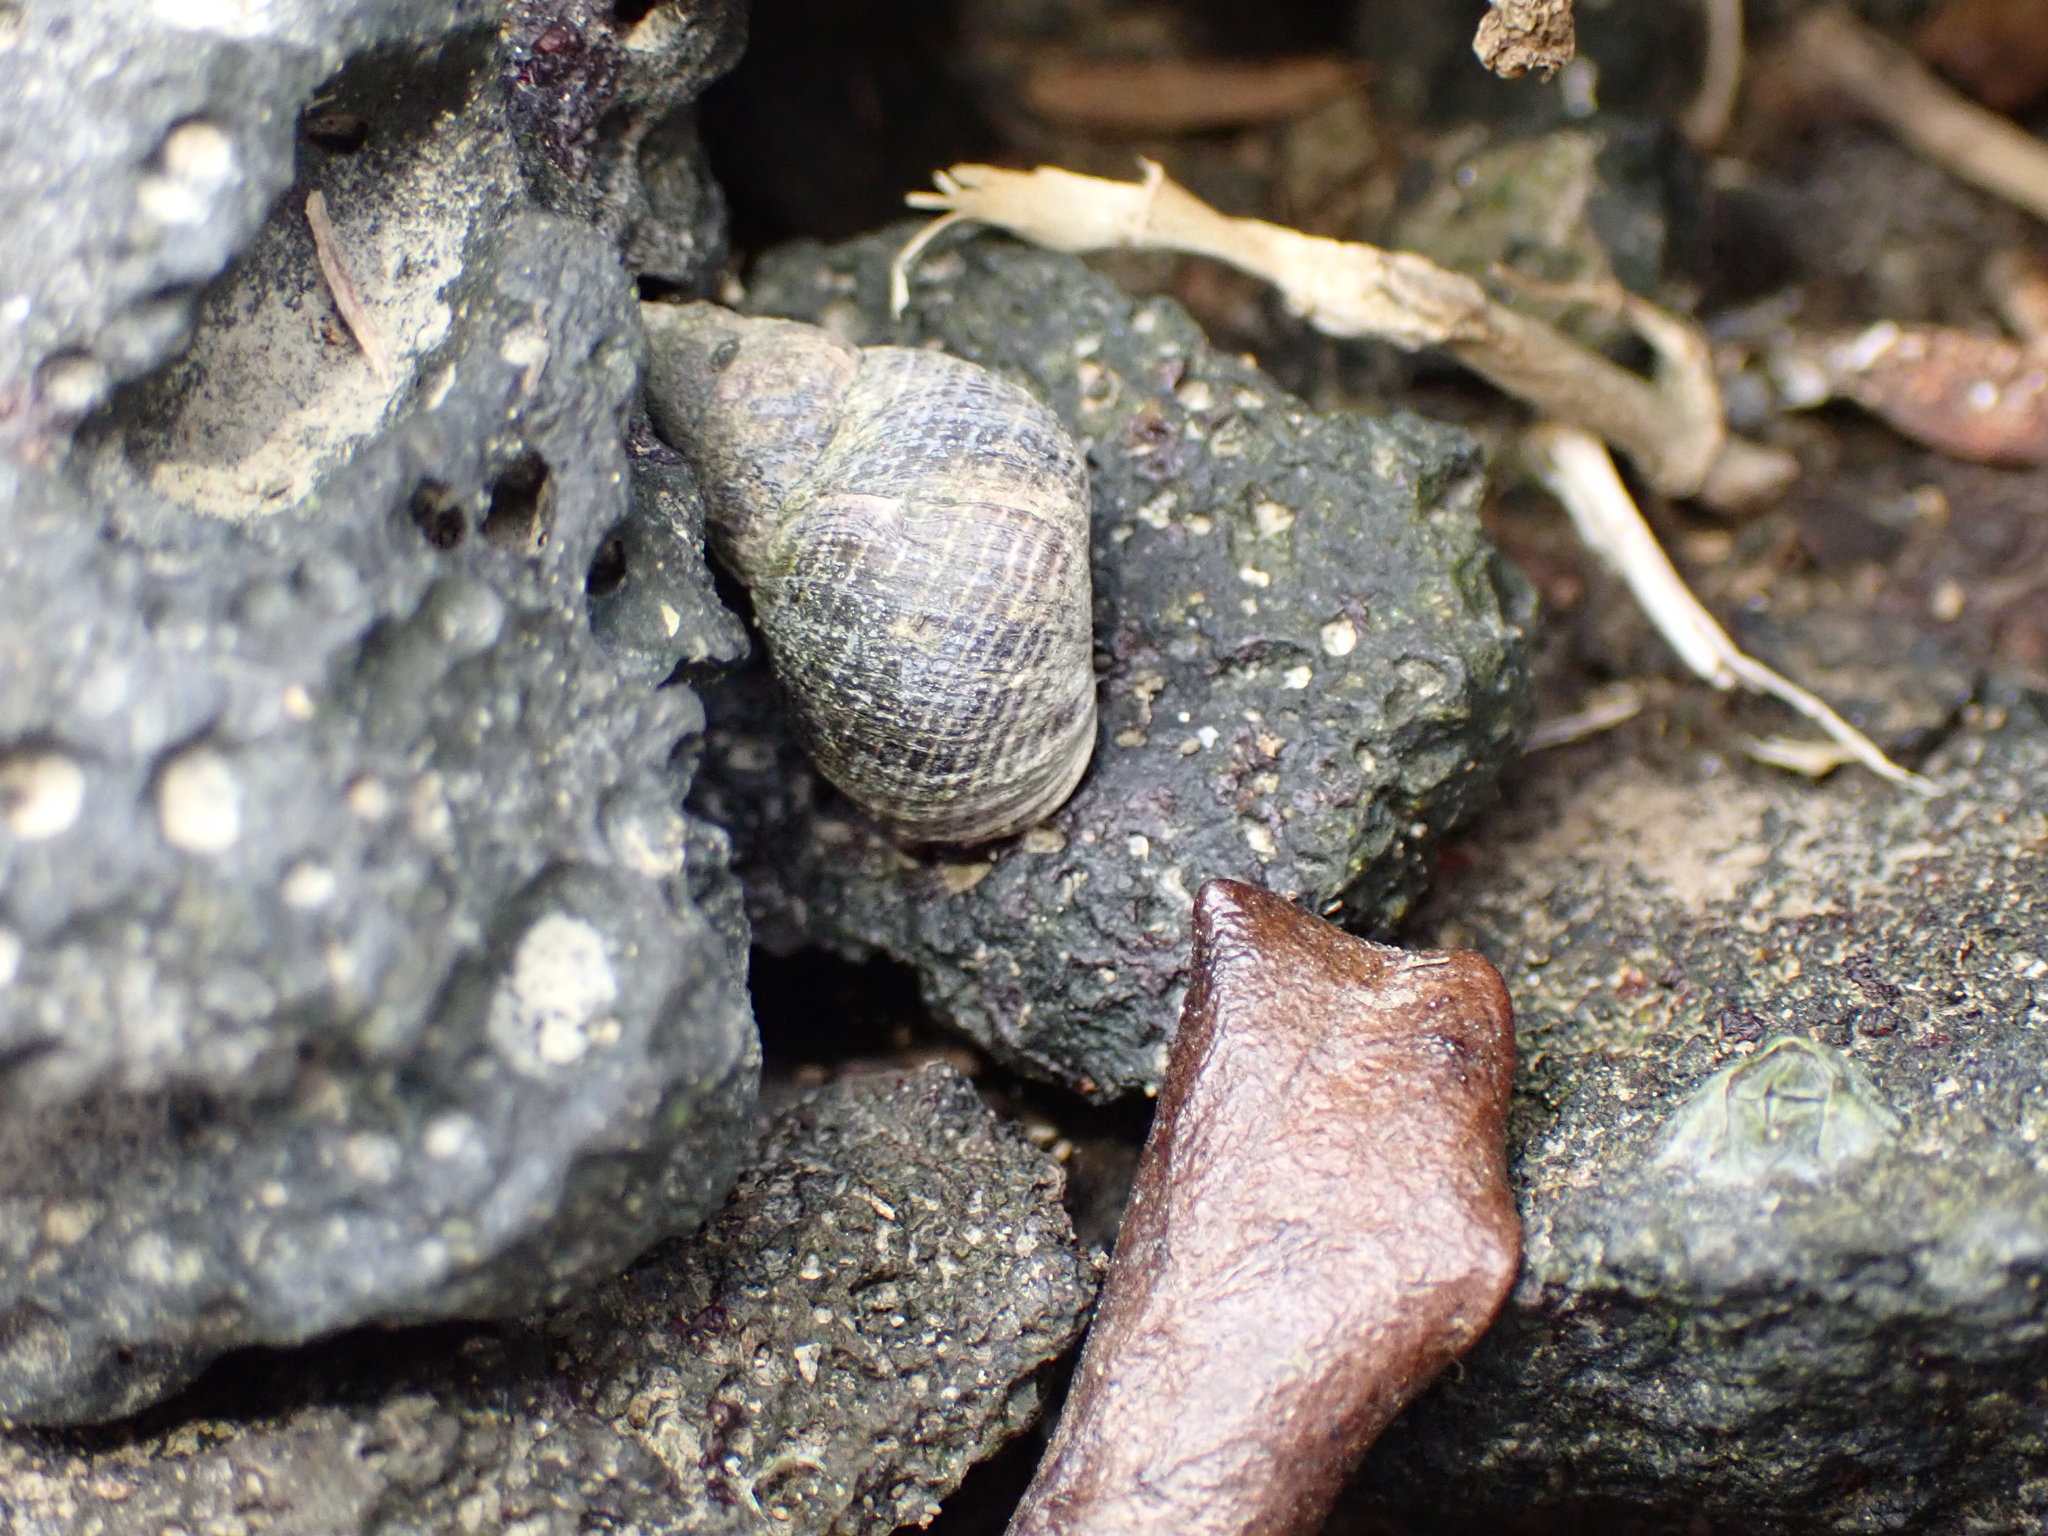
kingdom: Animalia
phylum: Mollusca
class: Gastropoda
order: Littorinimorpha
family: Littorinidae
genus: Austrolittorina
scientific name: Austrolittorina cincta
